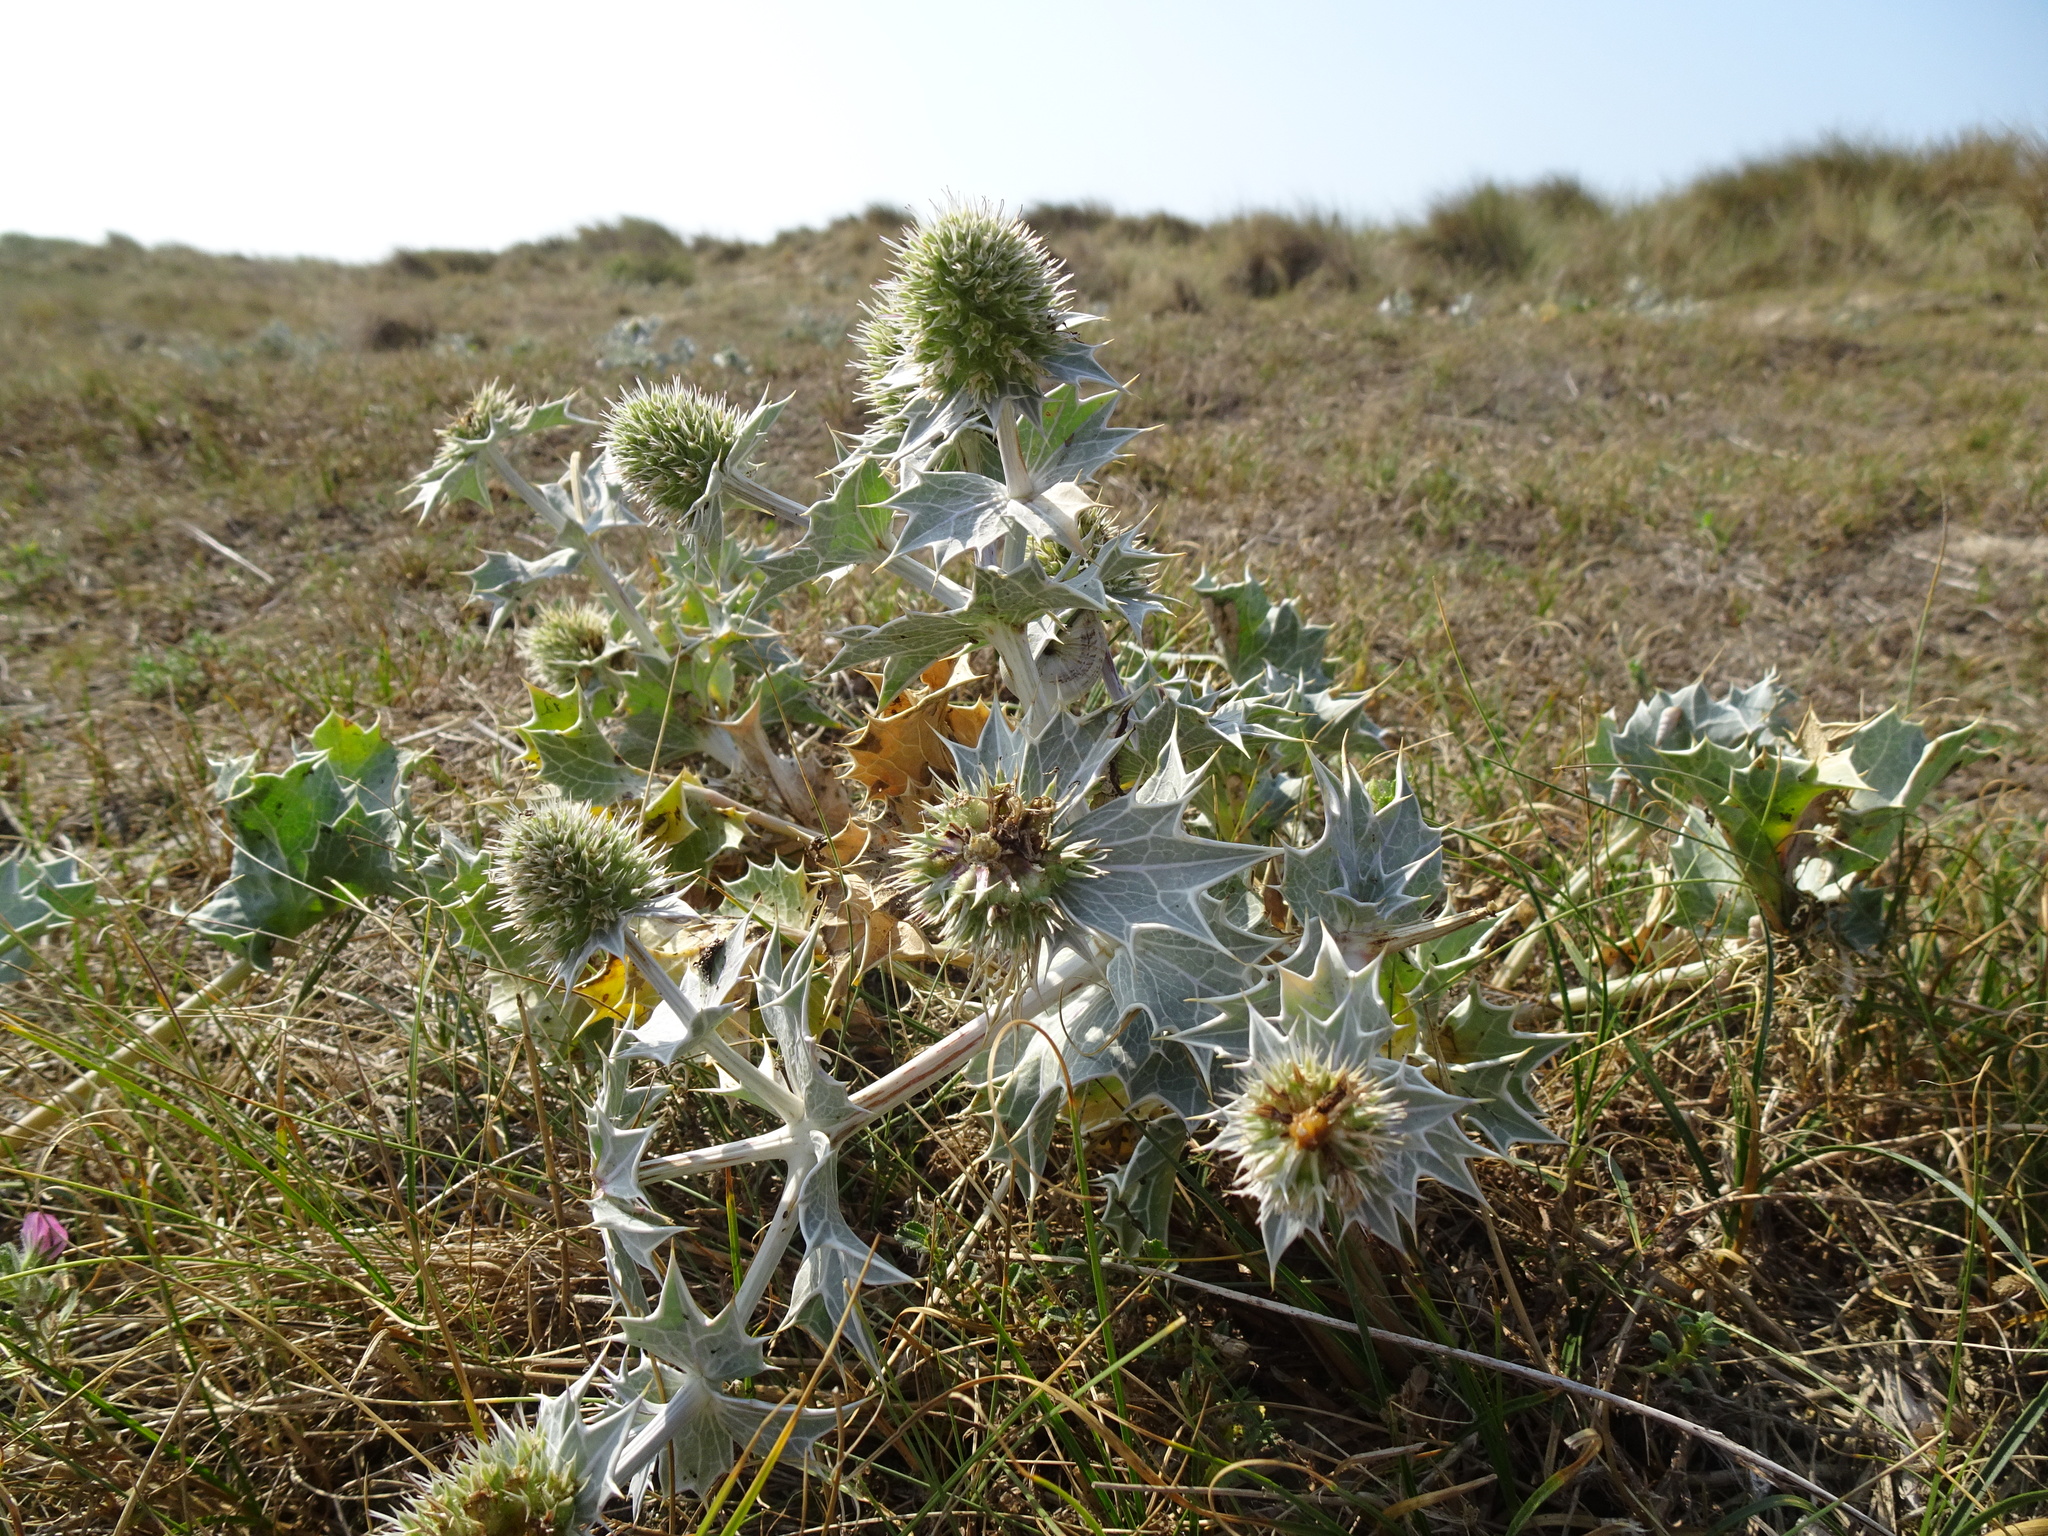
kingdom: Plantae
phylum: Tracheophyta
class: Magnoliopsida
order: Apiales
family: Apiaceae
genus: Eryngium
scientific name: Eryngium maritimum
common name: Sea-holly
